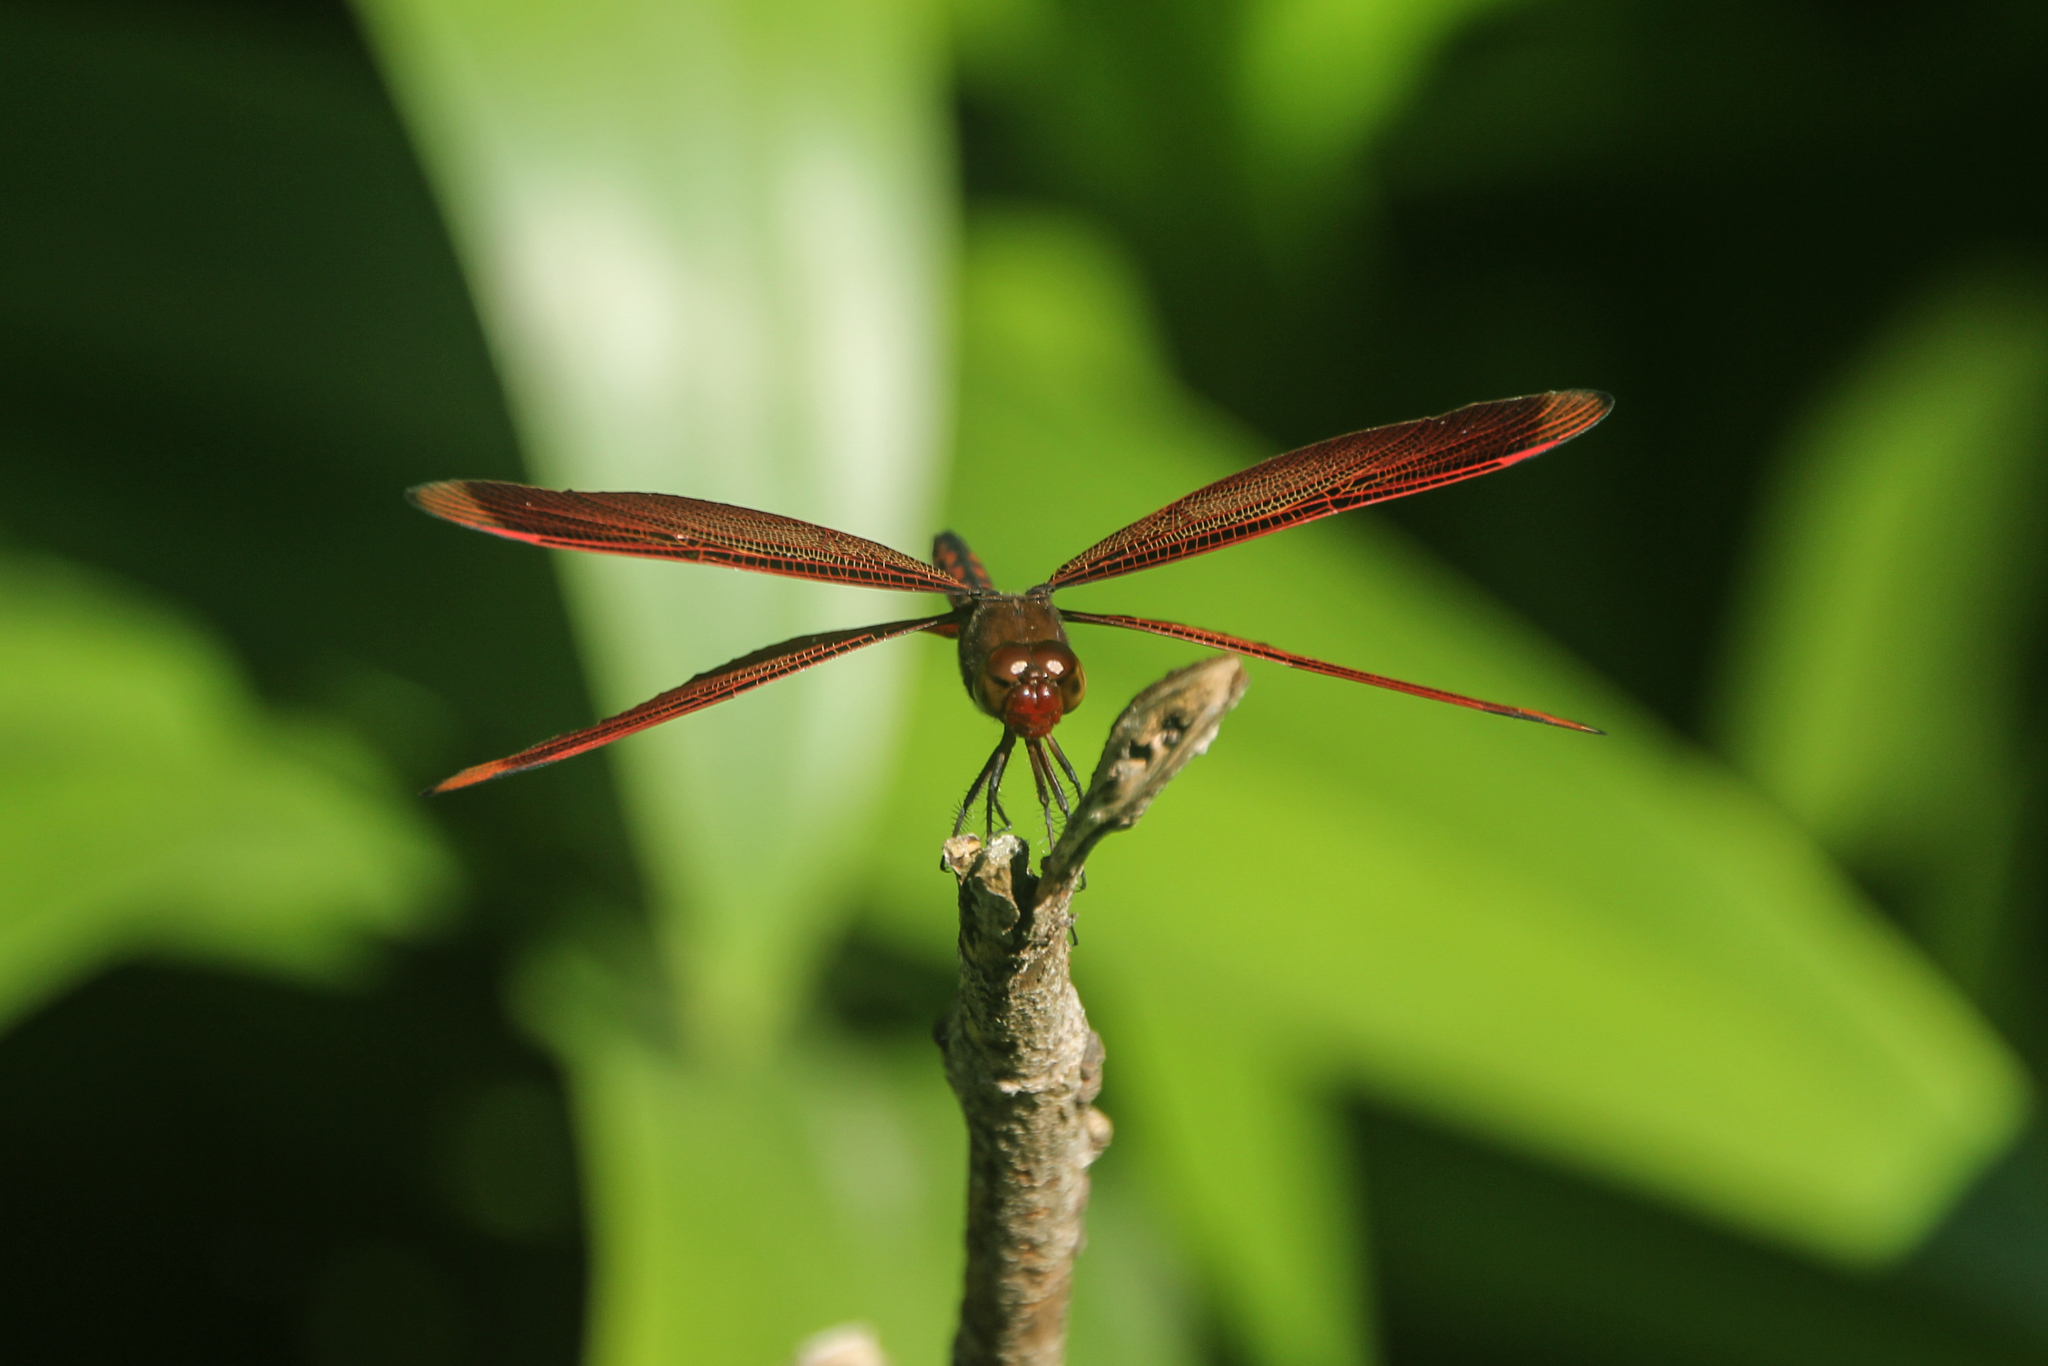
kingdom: Animalia
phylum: Arthropoda
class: Insecta
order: Odonata
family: Libellulidae
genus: Neurothemis
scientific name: Neurothemis taiwanensis
